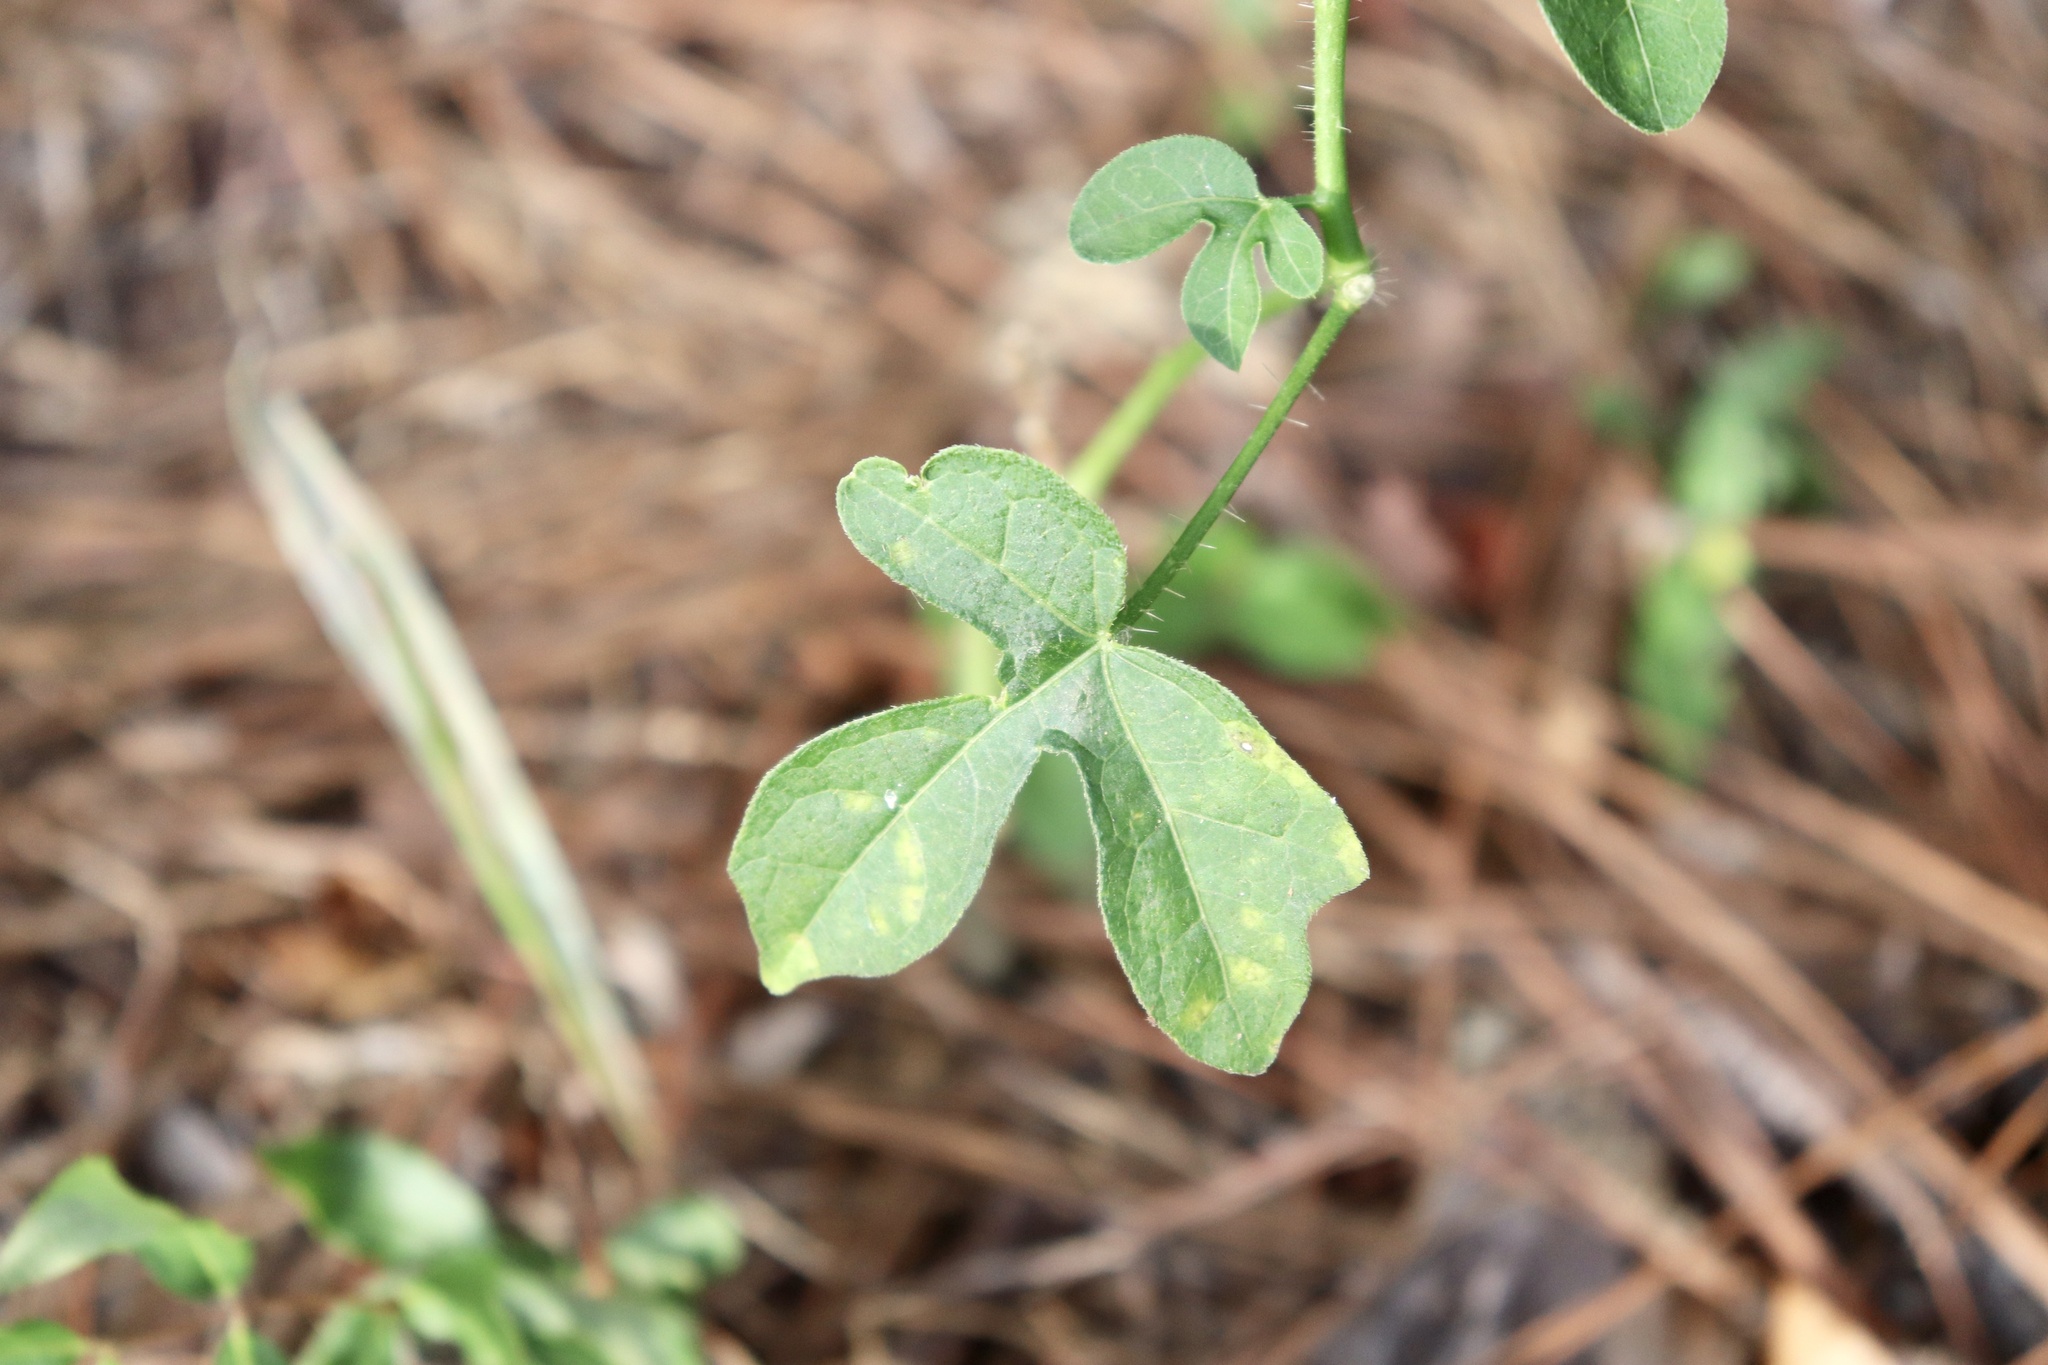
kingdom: Plantae
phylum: Tracheophyta
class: Magnoliopsida
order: Malpighiales
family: Euphorbiaceae
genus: Cnidoscolus
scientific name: Cnidoscolus stimulosus
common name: Bull-nettle
